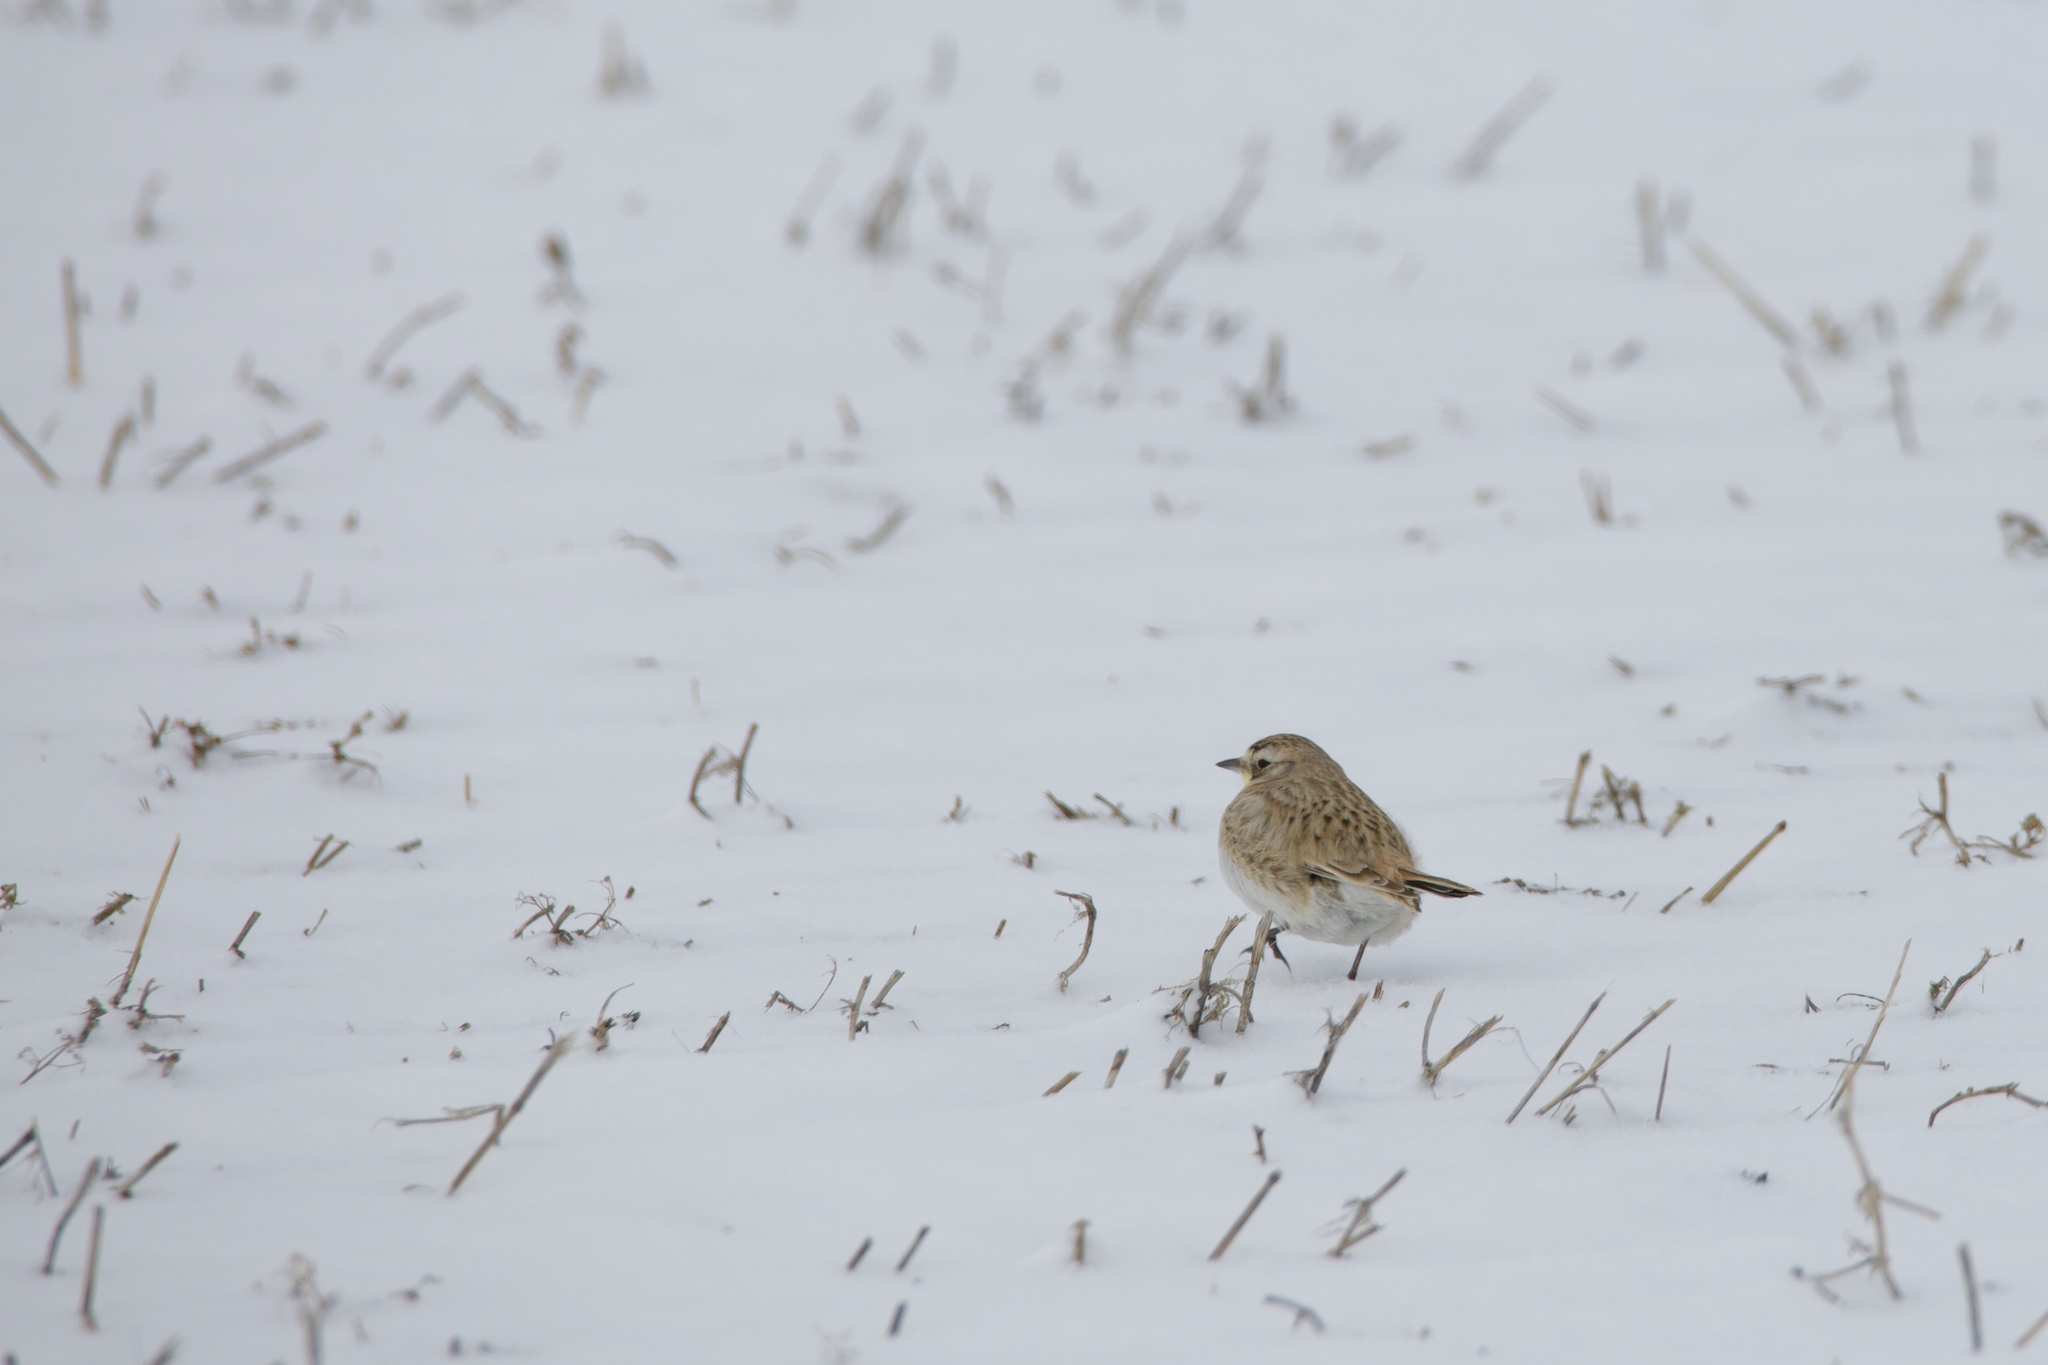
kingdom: Animalia
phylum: Chordata
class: Aves
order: Passeriformes
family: Alaudidae
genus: Eremophila
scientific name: Eremophila alpestris
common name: Horned lark
